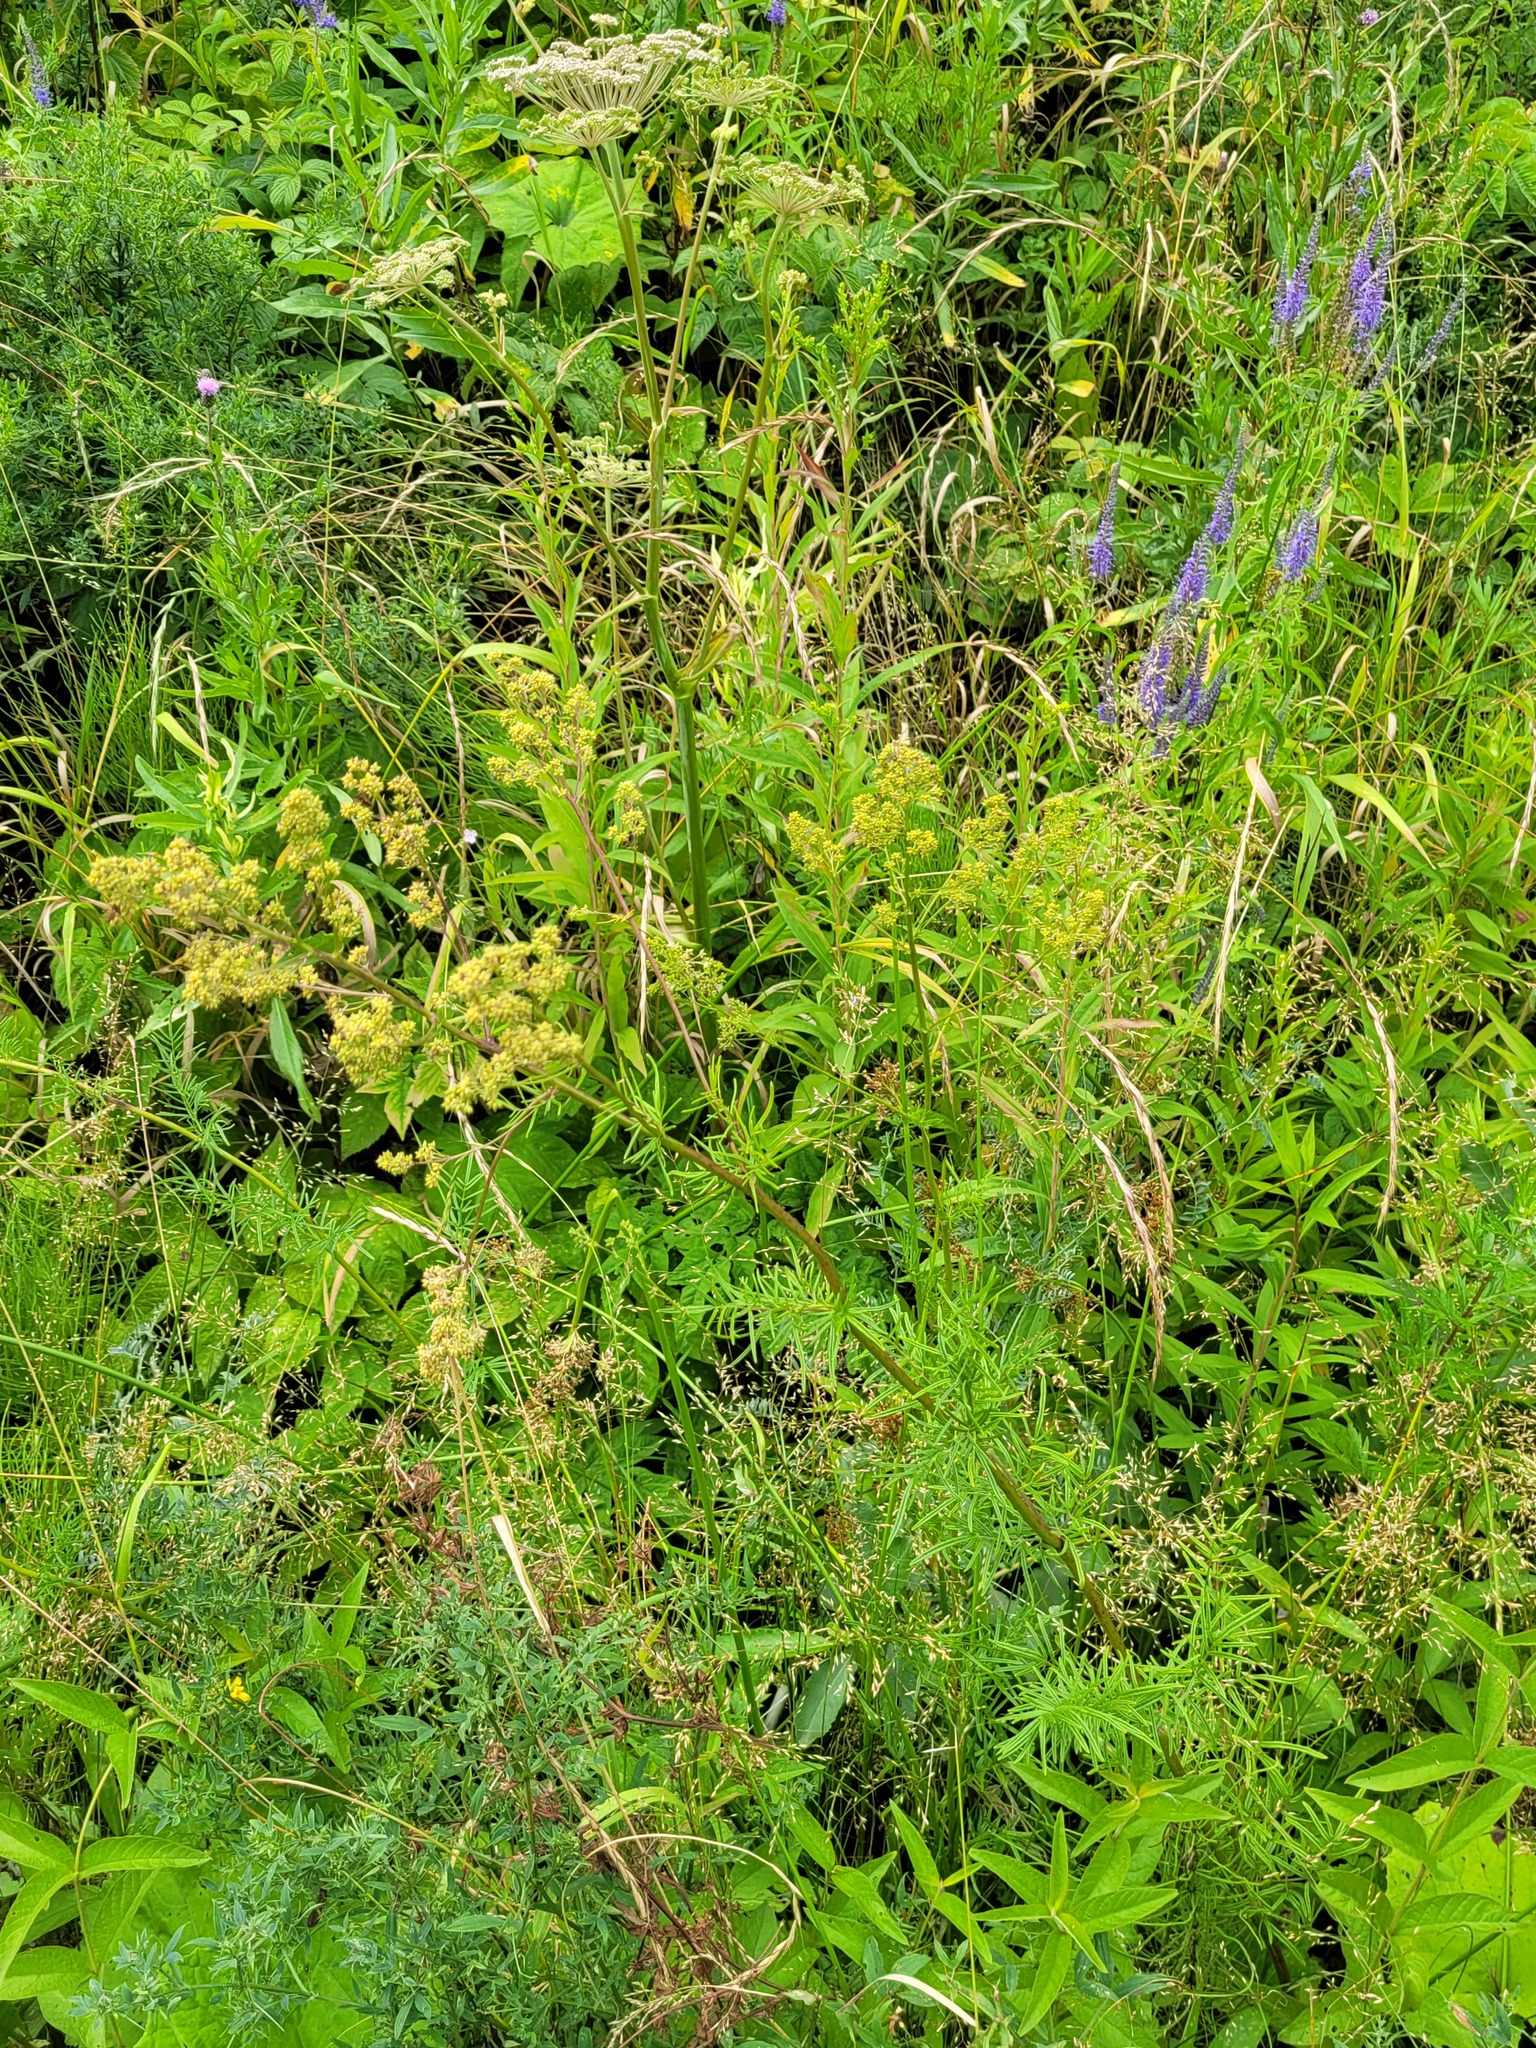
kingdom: Plantae
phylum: Tracheophyta
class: Magnoliopsida
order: Ranunculales
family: Ranunculaceae
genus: Thalictrum
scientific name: Thalictrum lucidum
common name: Shining meadow-rue
